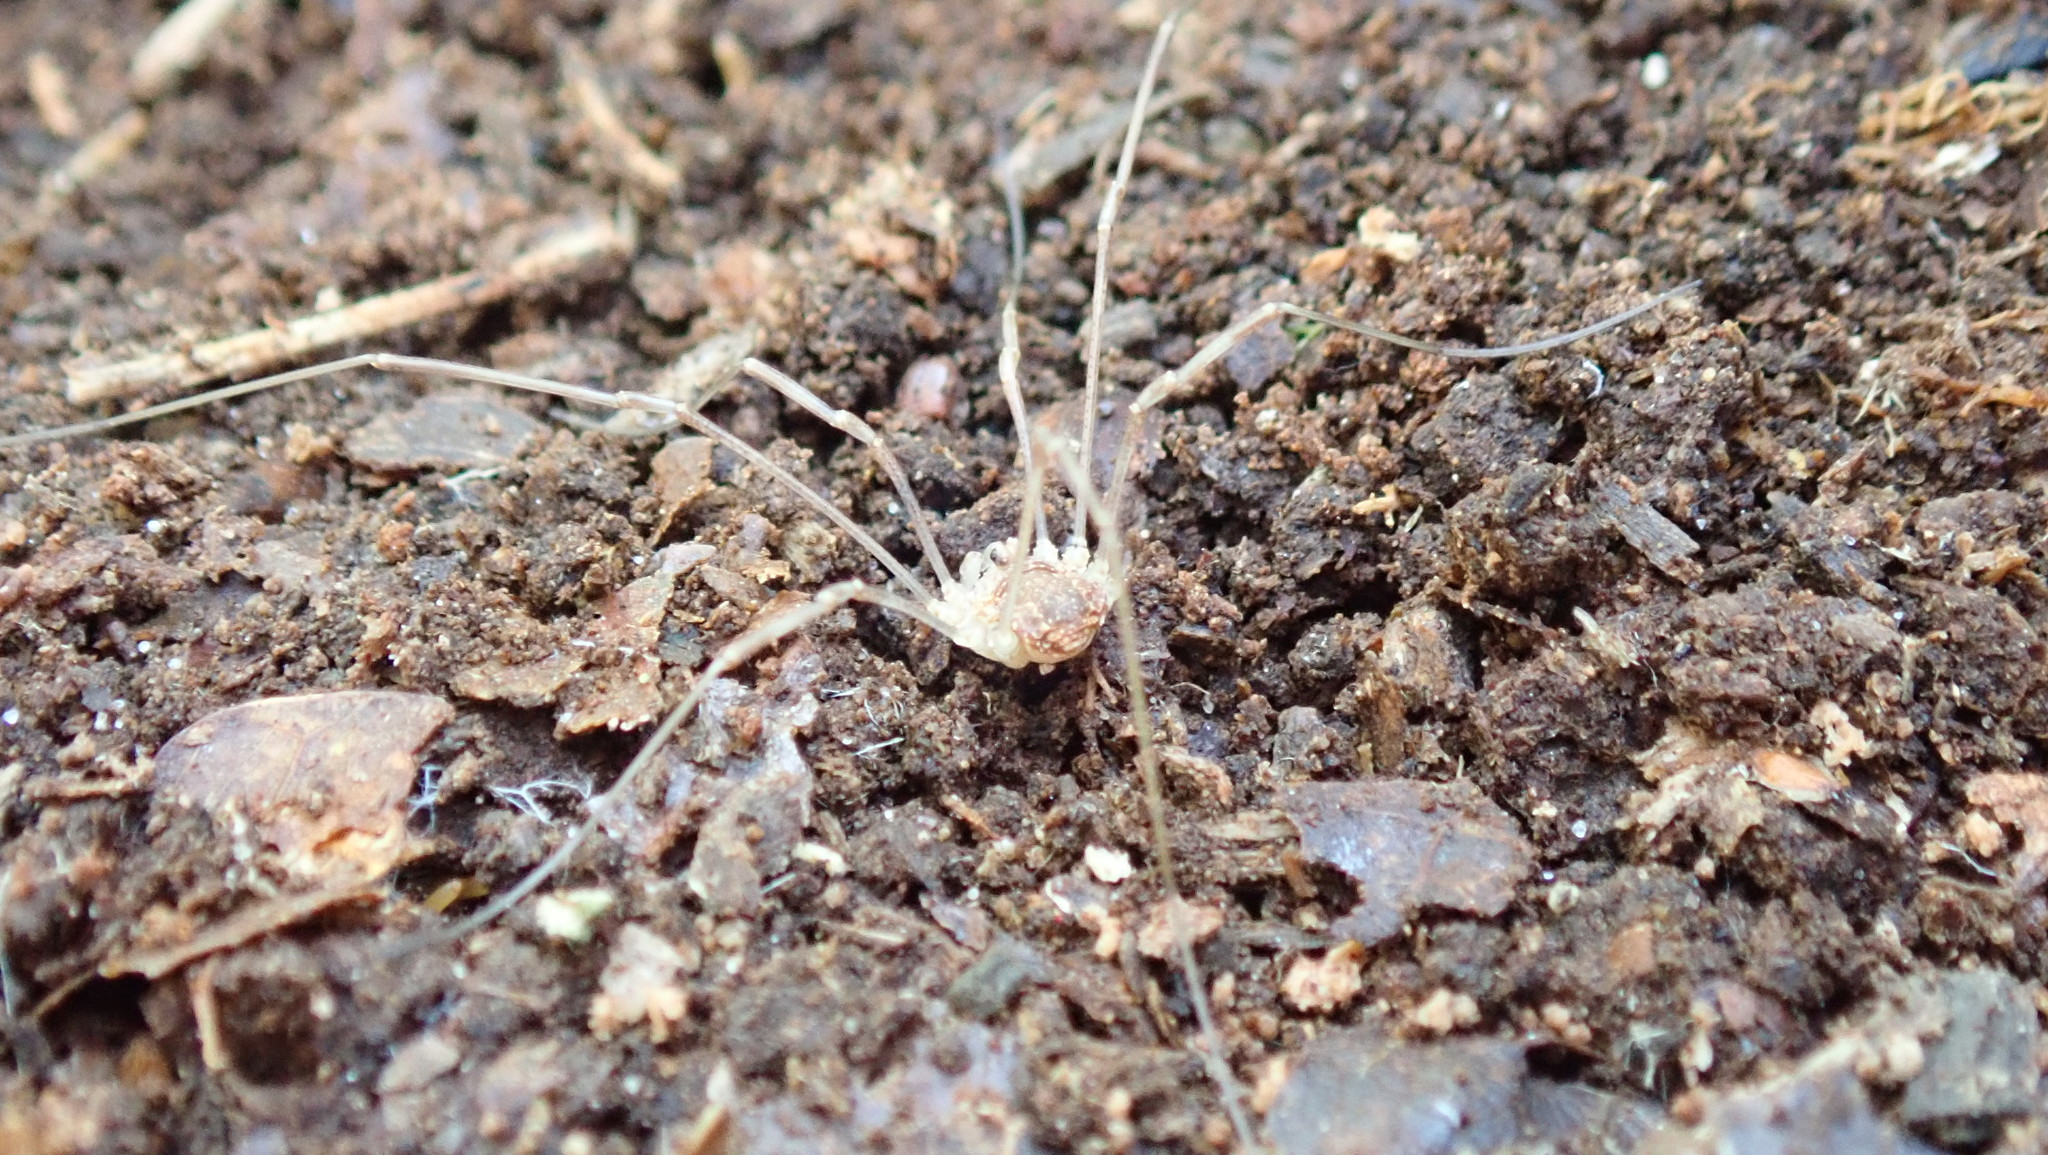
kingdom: Animalia
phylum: Arthropoda
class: Arachnida
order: Opiliones
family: Phalangiidae
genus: Rilaena
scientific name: Rilaena triangularis
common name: Spring harvestman
